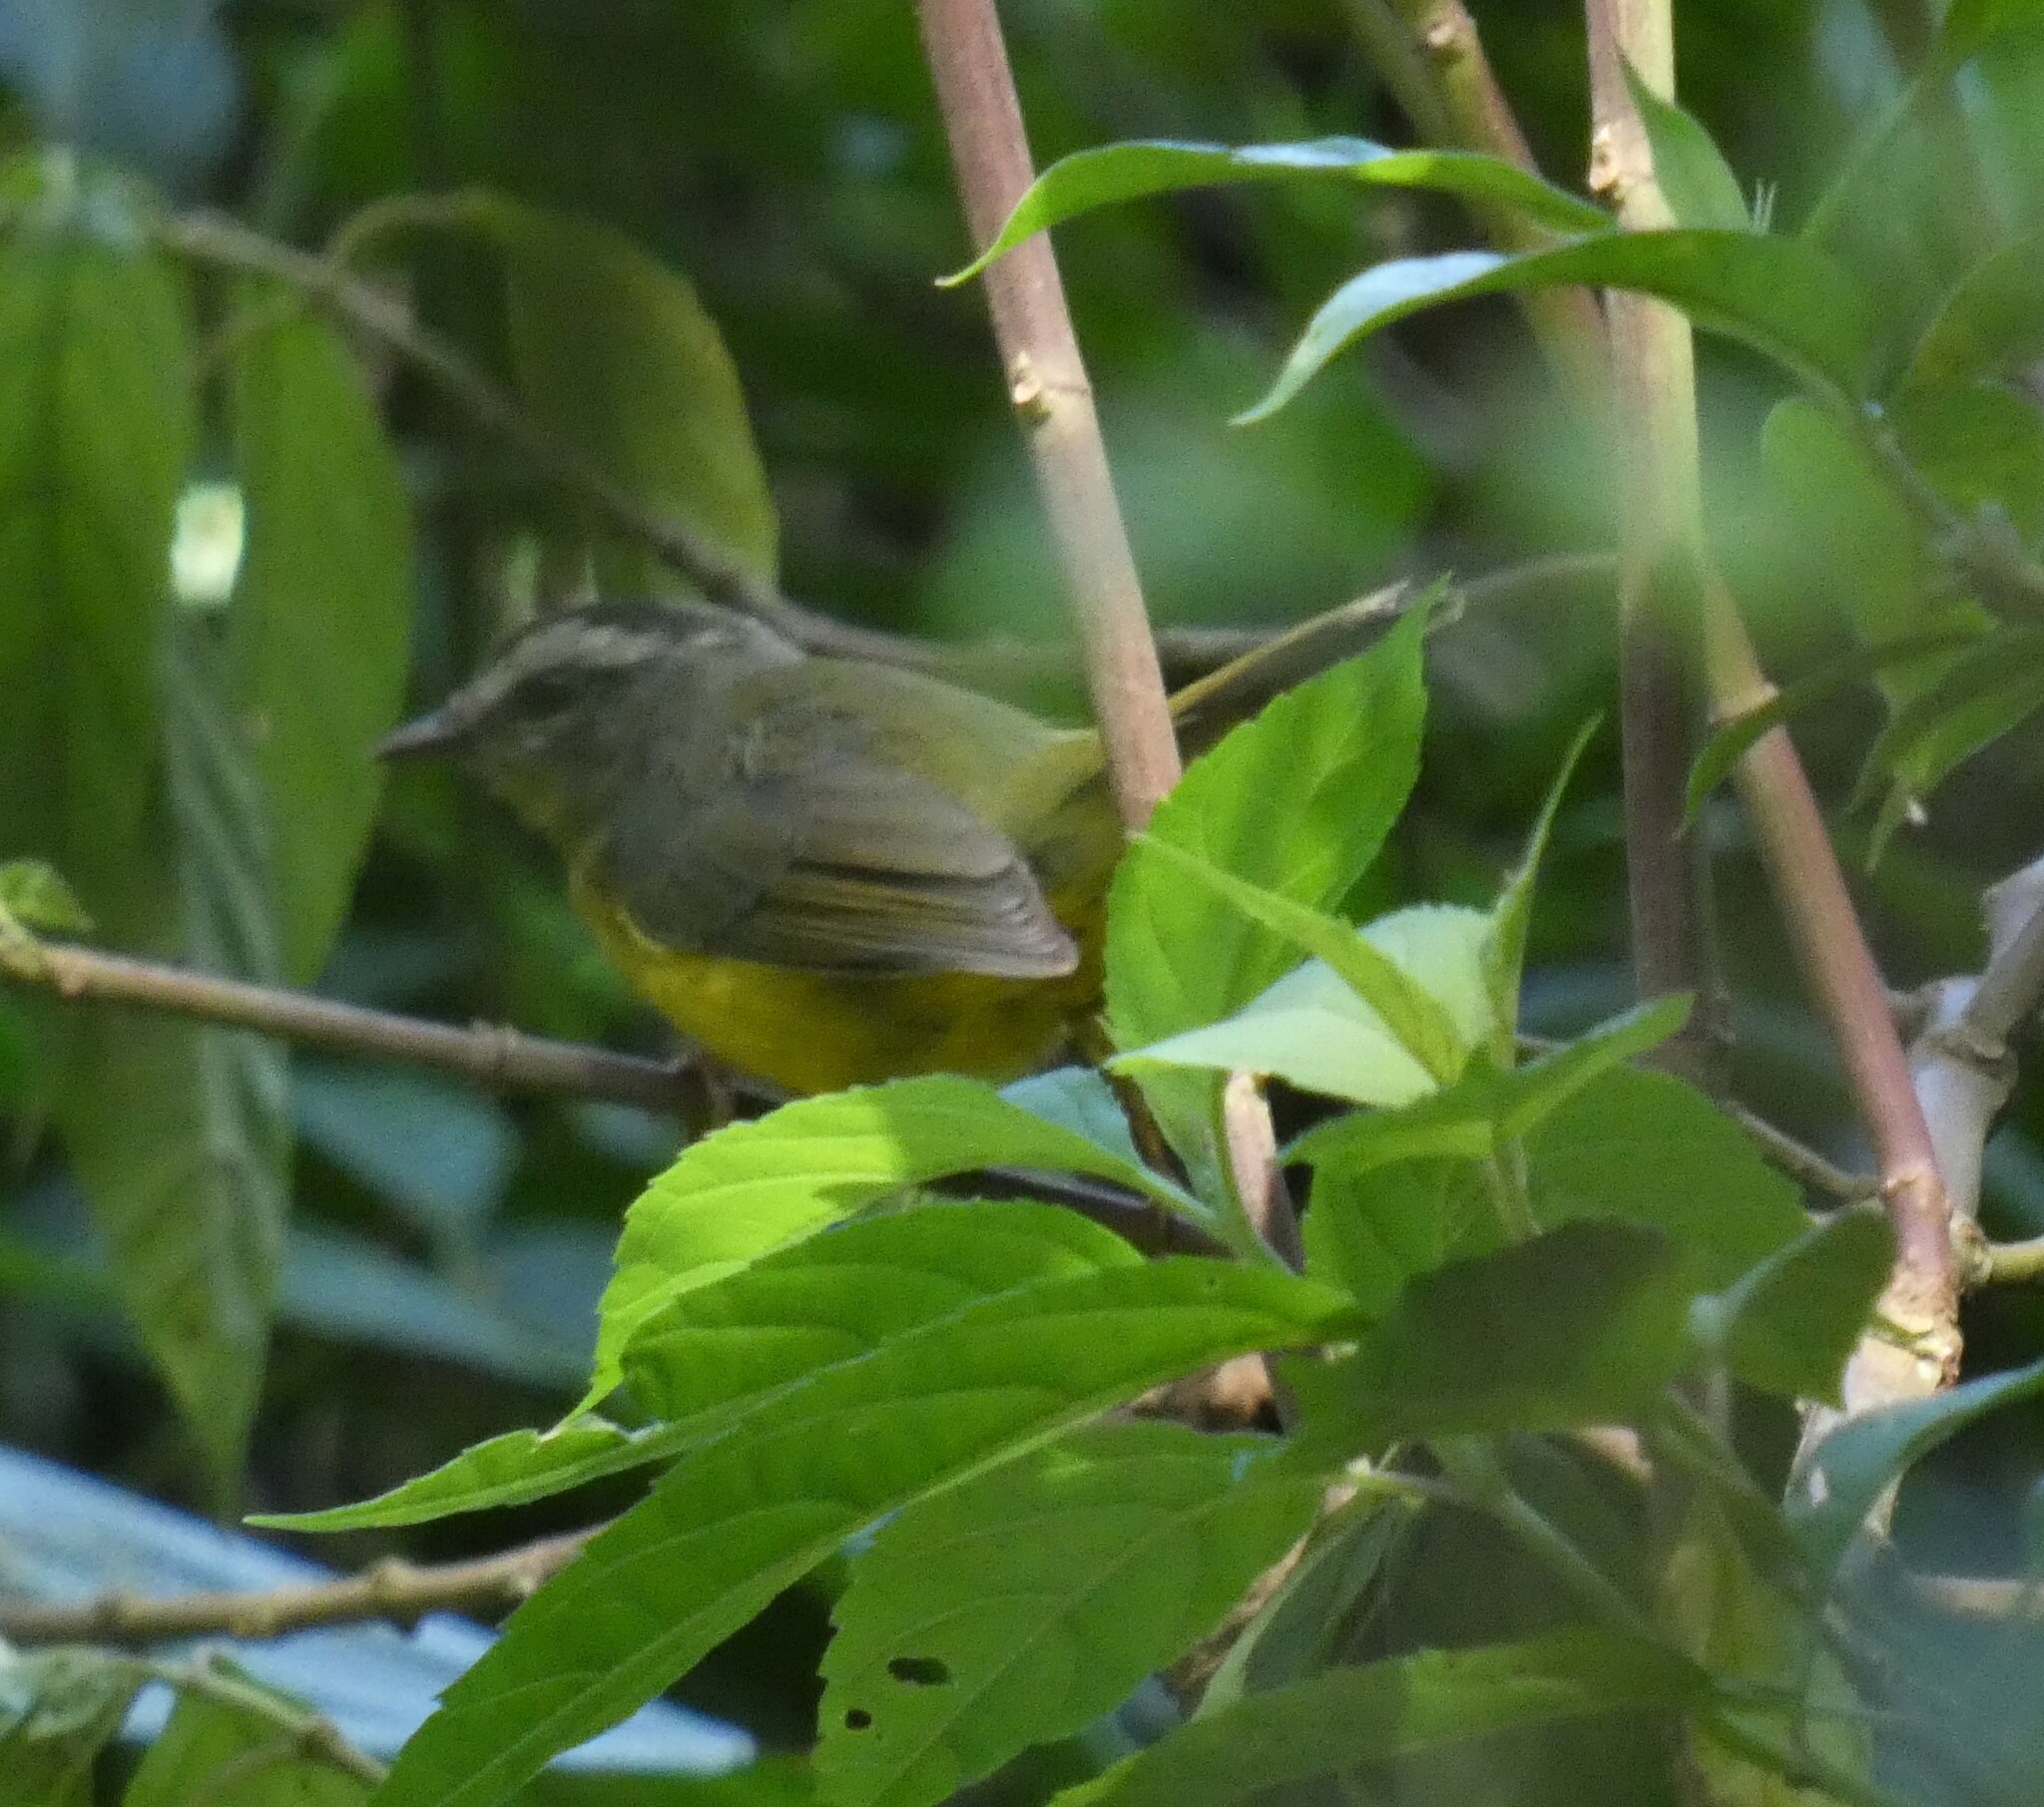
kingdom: Animalia
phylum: Chordata
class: Aves
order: Passeriformes
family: Parulidae
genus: Basileuterus
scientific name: Basileuterus culicivorus
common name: Golden-crowned warbler
